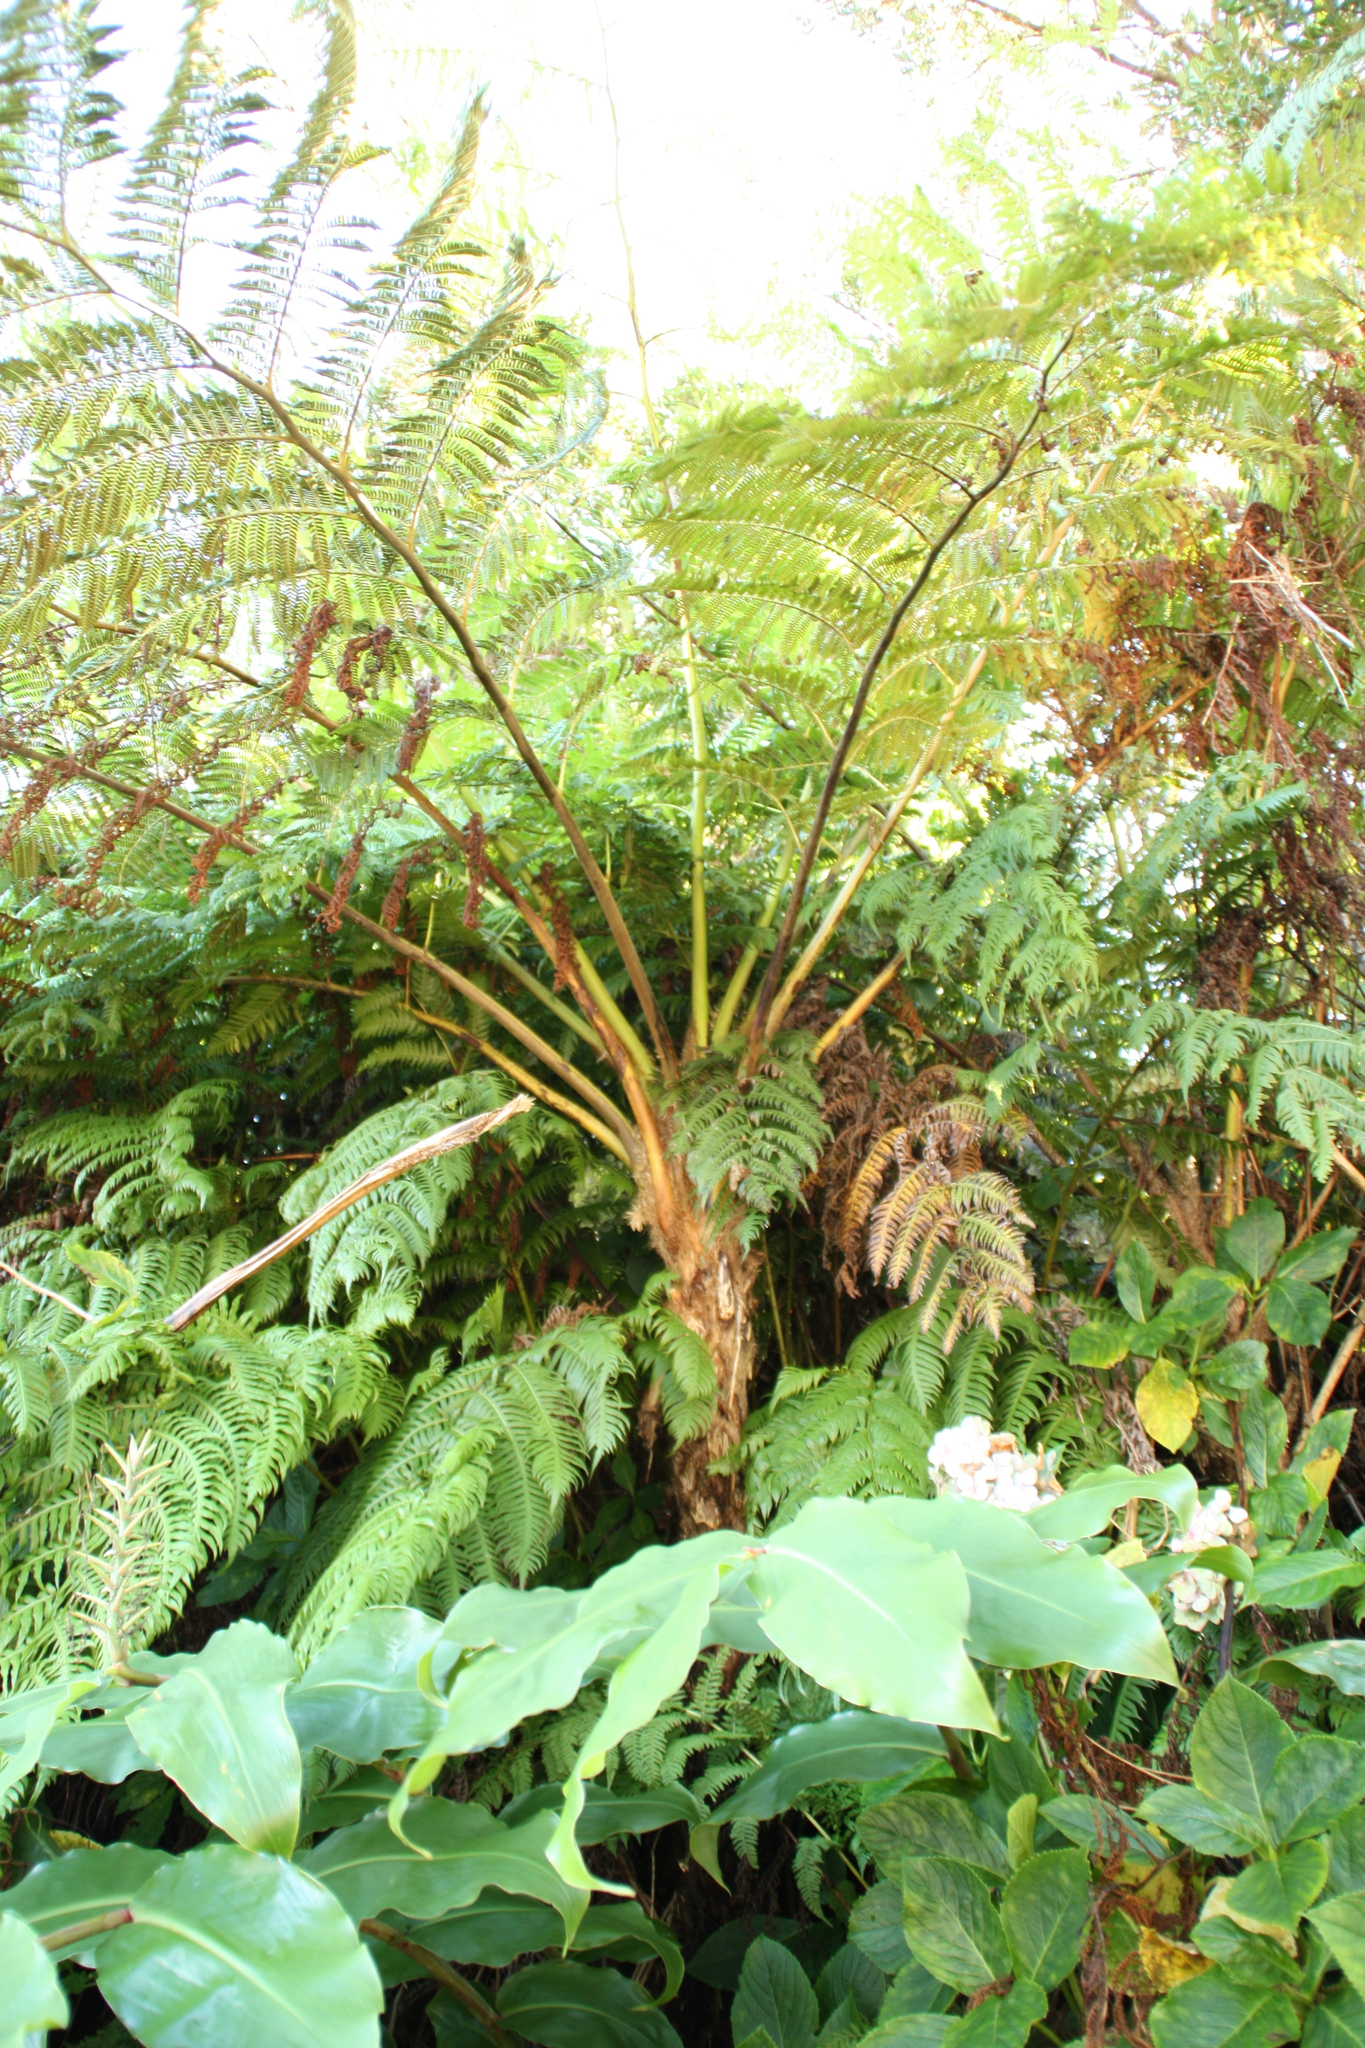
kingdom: Plantae
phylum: Tracheophyta
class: Polypodiopsida
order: Cyatheales
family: Cyatheaceae
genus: Sphaeropteris
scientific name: Sphaeropteris cooperi
